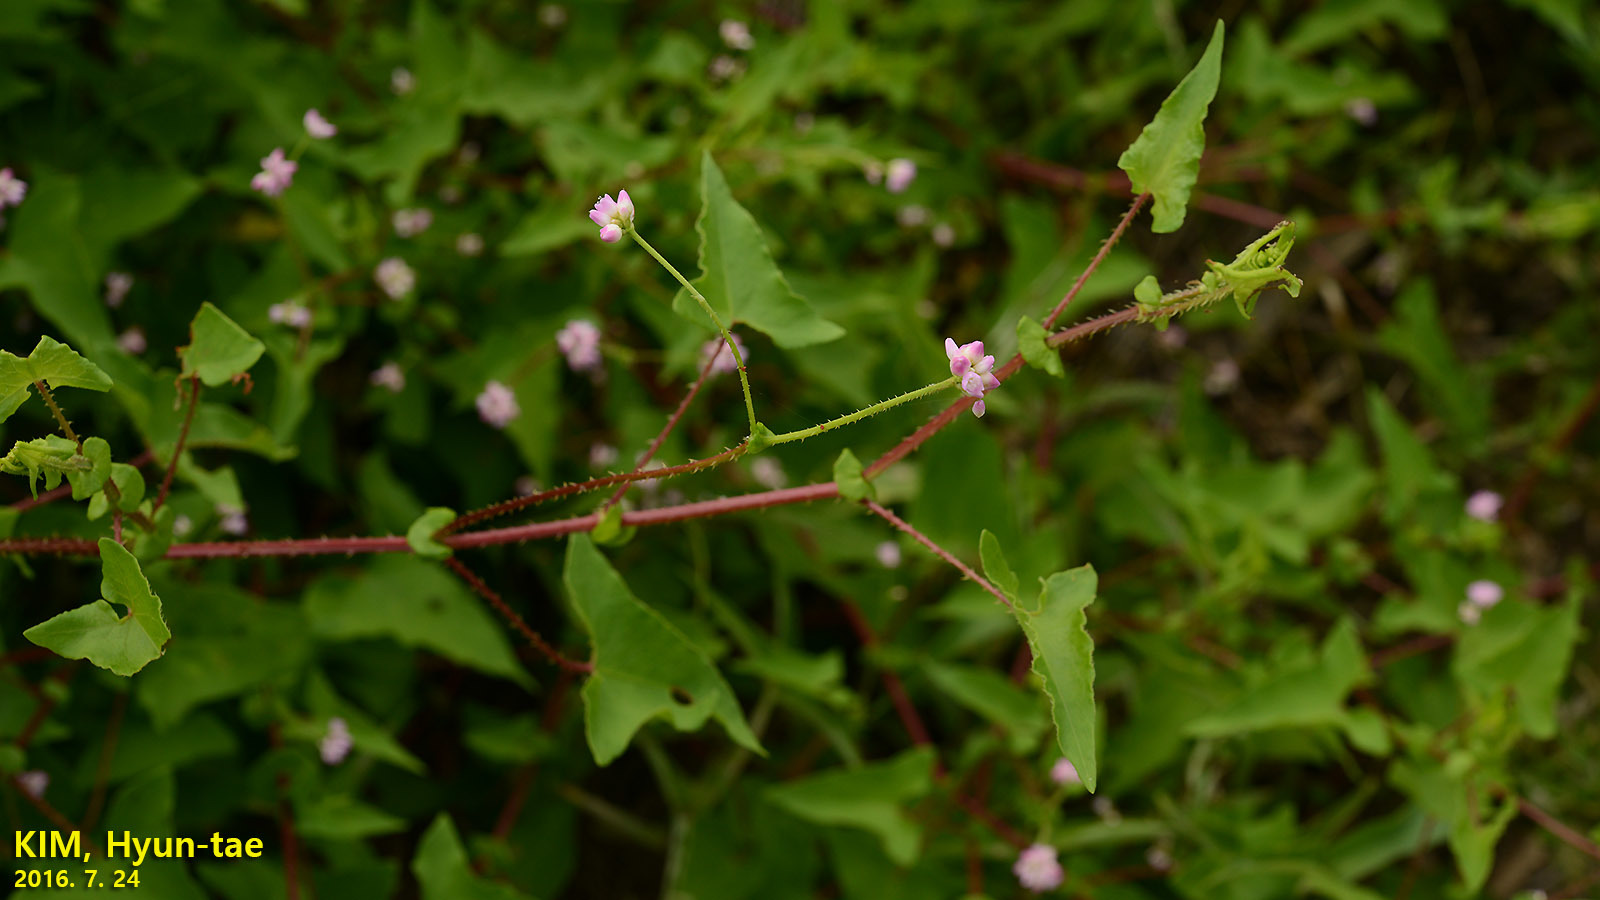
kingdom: Plantae
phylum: Tracheophyta
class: Magnoliopsida
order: Caryophyllales
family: Polygonaceae
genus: Persicaria
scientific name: Persicaria senticosa
